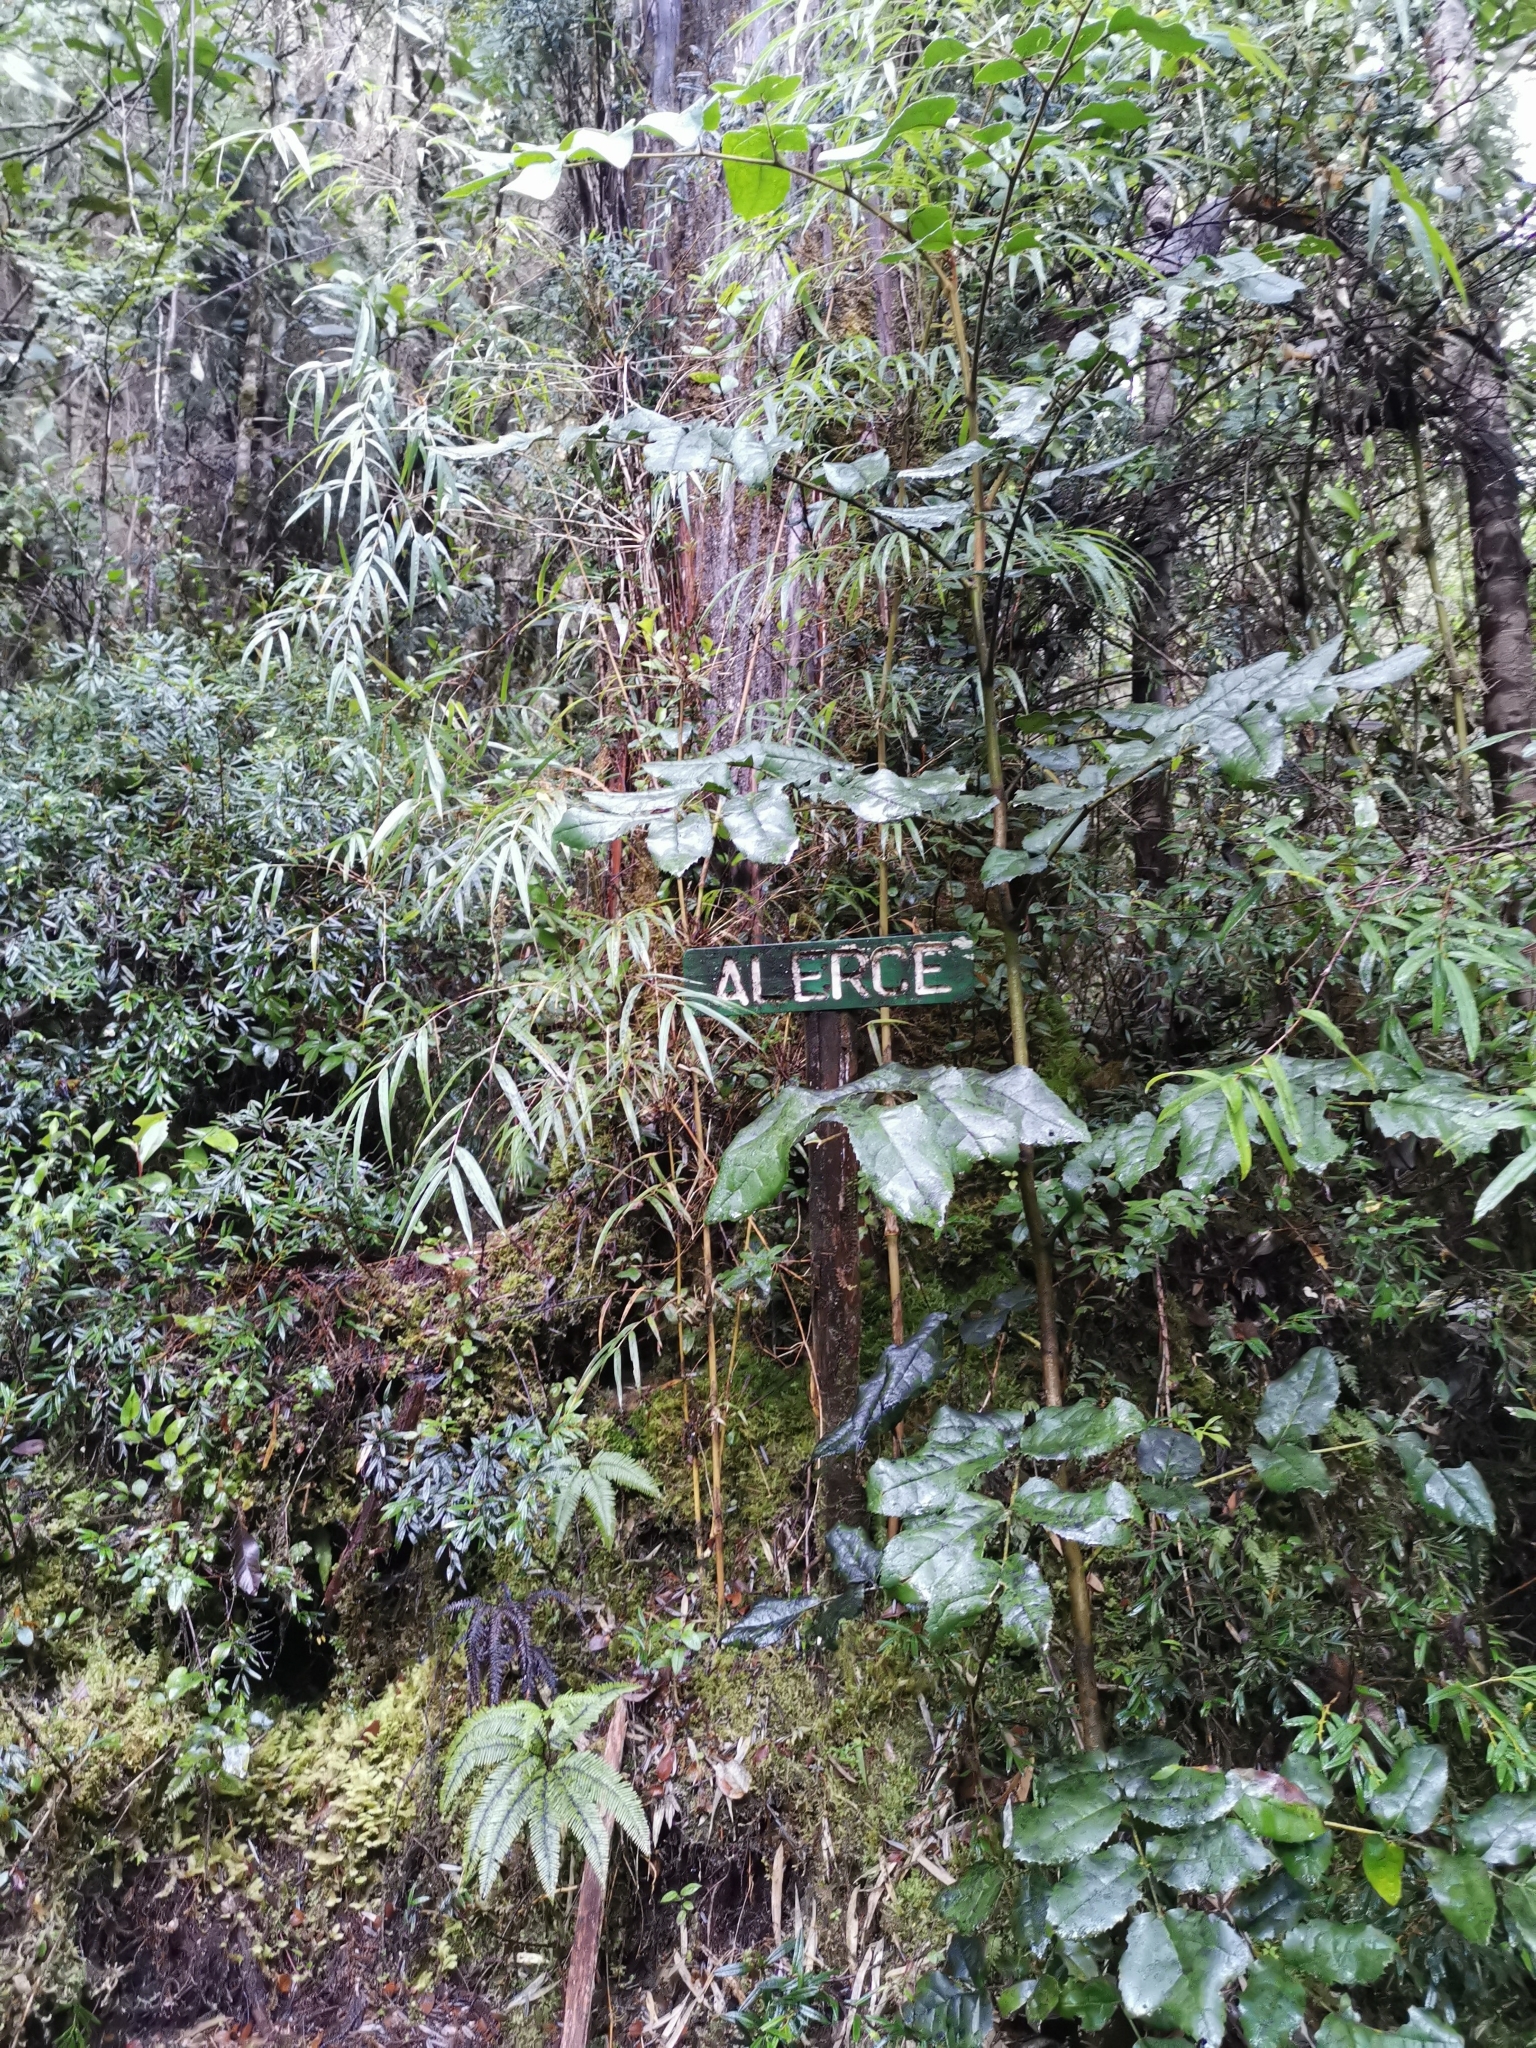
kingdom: Plantae
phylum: Tracheophyta
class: Pinopsida
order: Pinales
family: Cupressaceae
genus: Fitzroya
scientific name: Fitzroya cupressoides
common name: Patagonian cypress
